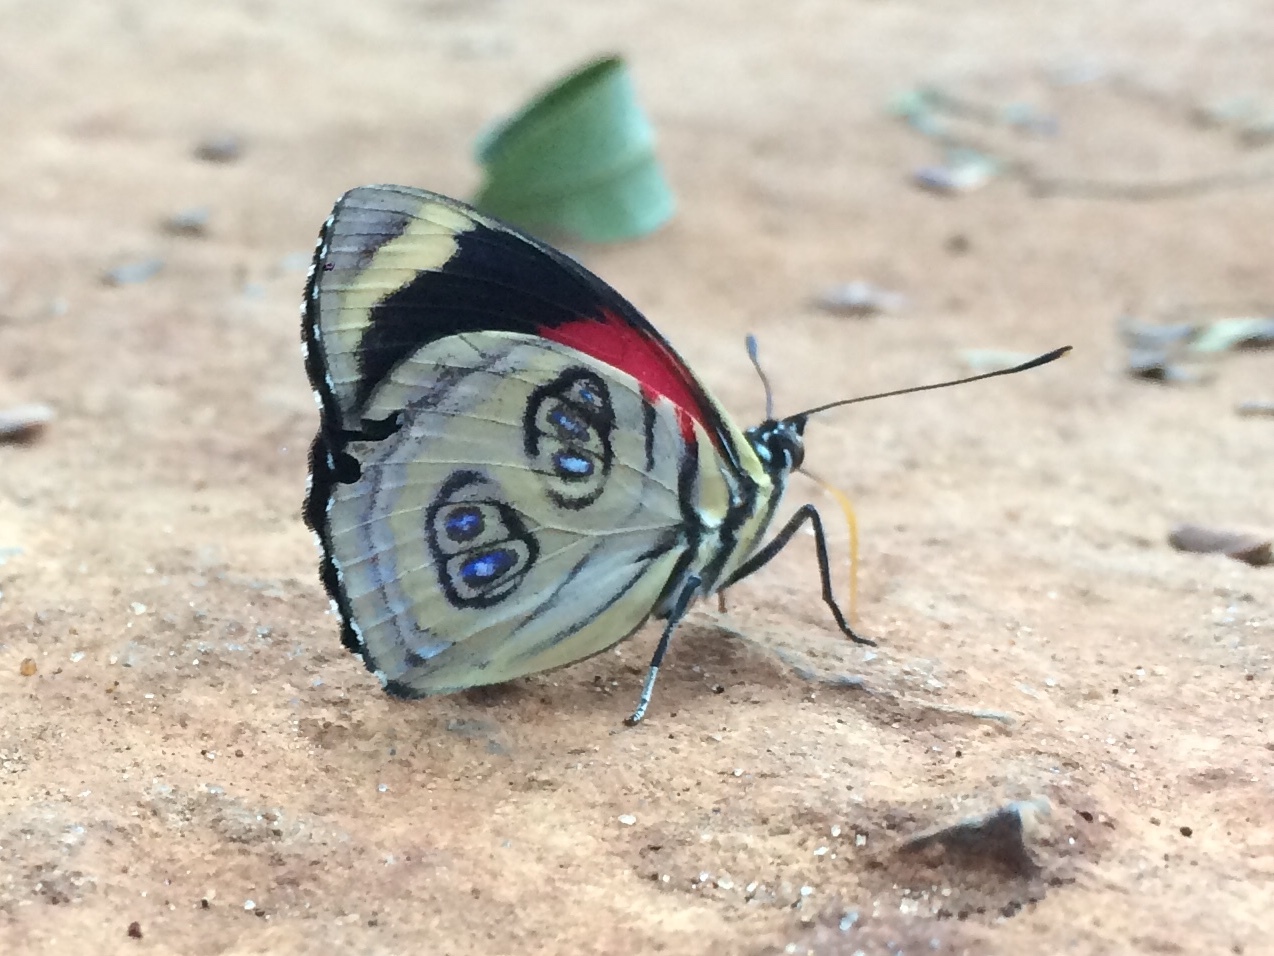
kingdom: Animalia
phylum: Arthropoda
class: Insecta
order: Lepidoptera
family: Nymphalidae
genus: Catagramma
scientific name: Catagramma pygas
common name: Godart's numberwing
